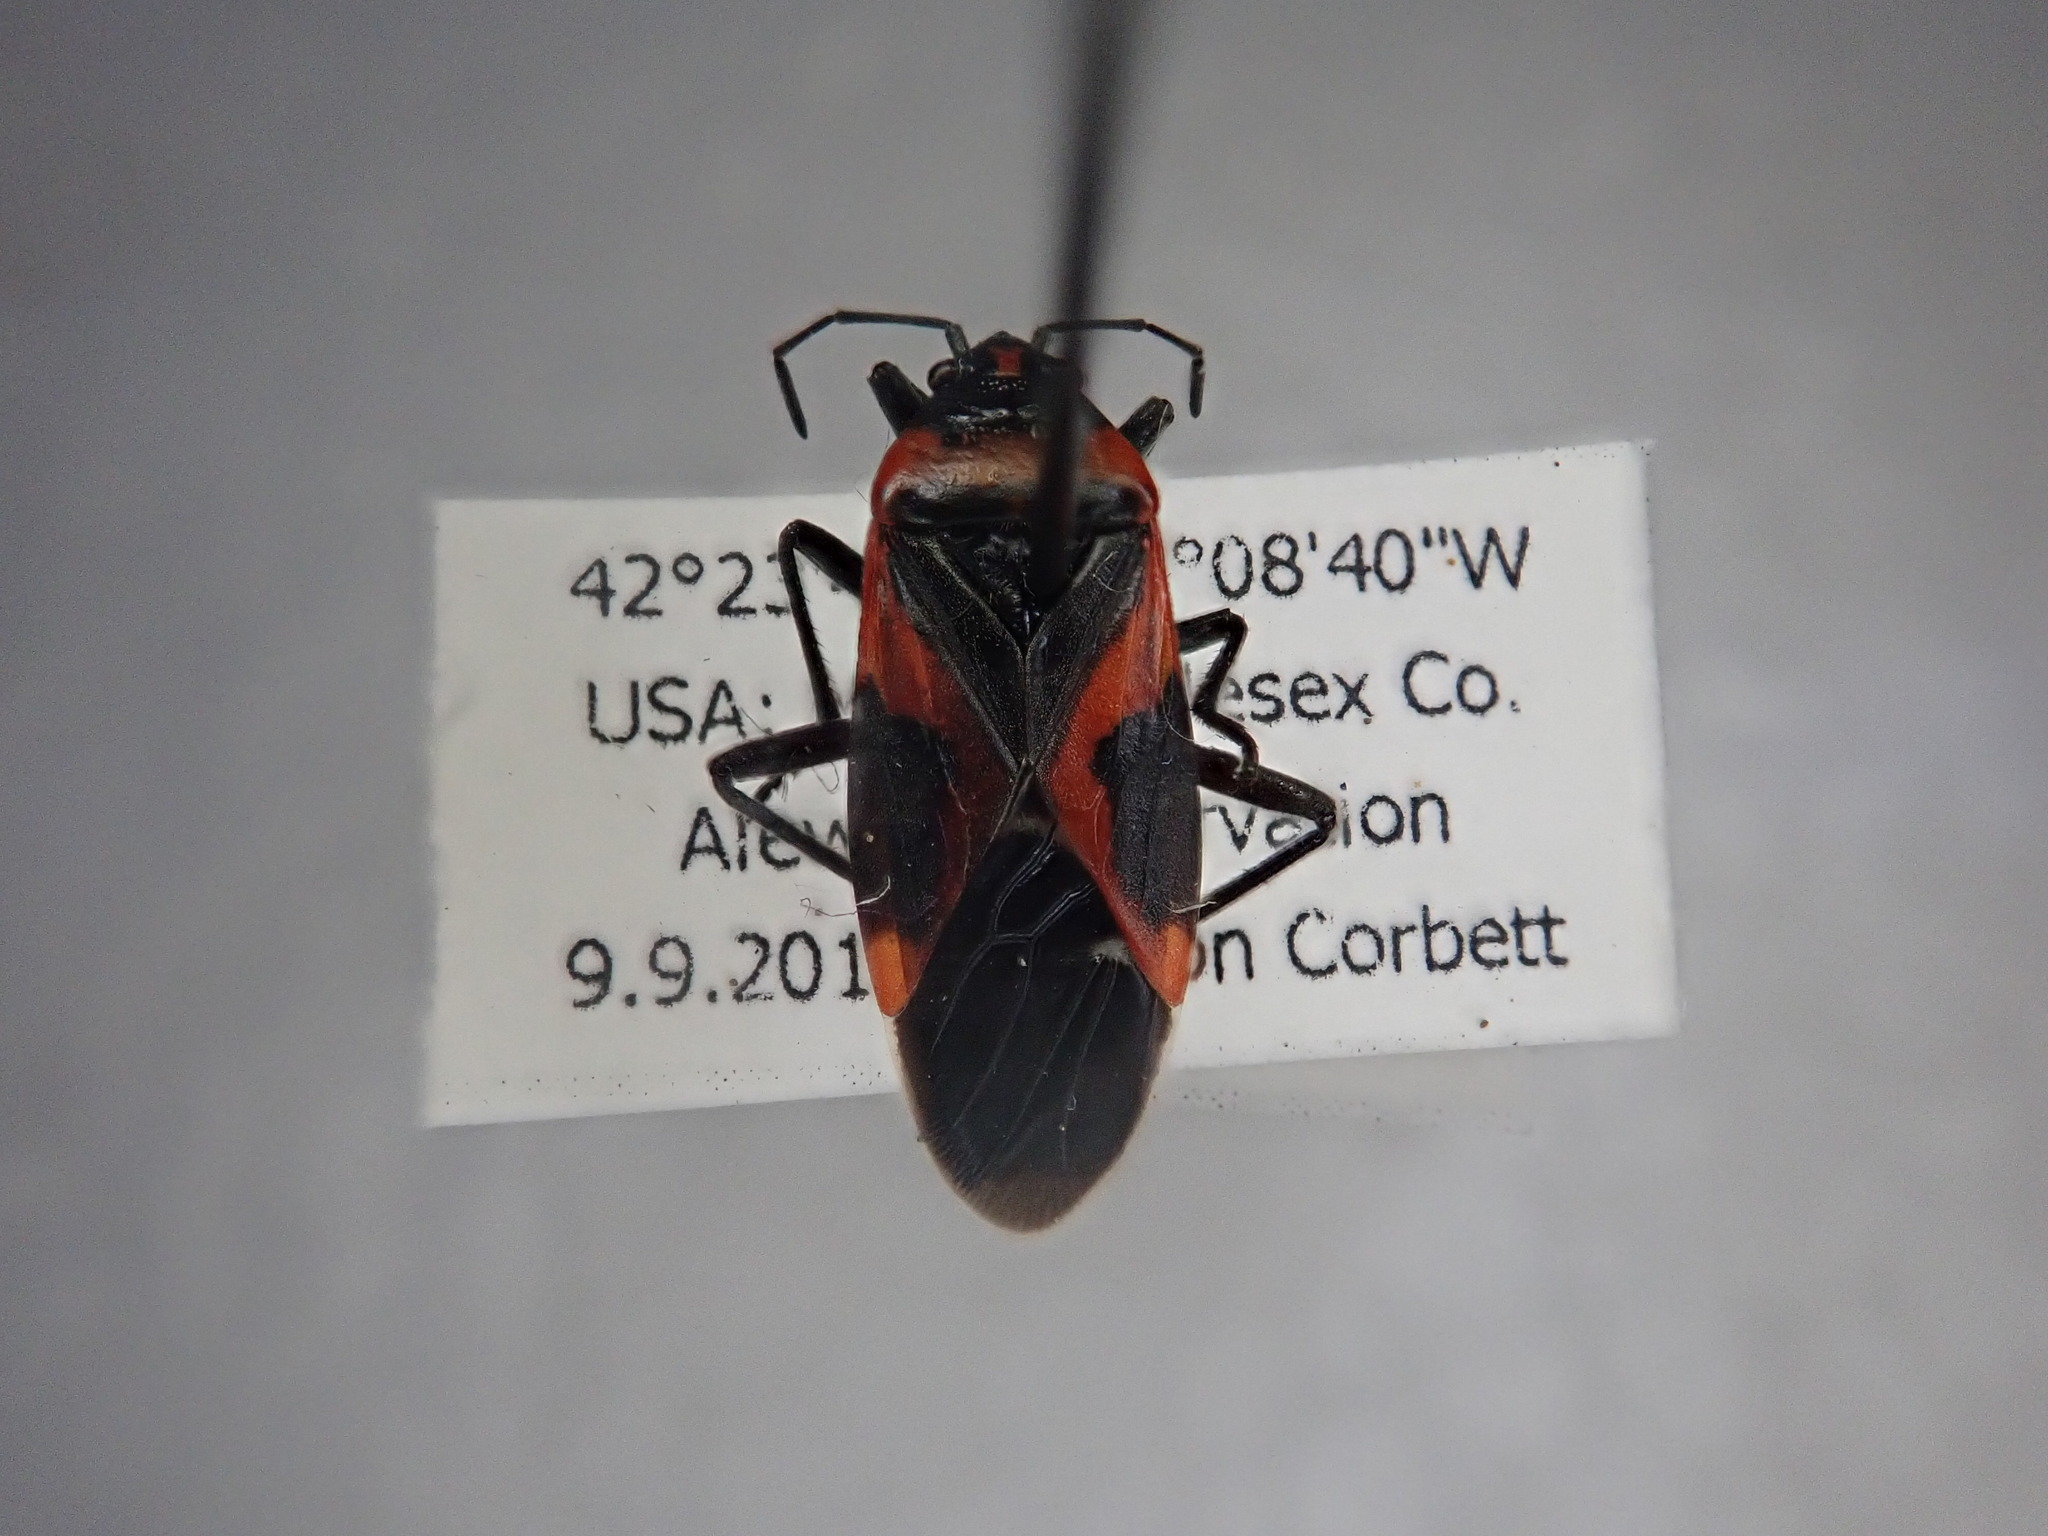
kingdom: Animalia
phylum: Arthropoda
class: Insecta
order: Hemiptera
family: Lygaeidae
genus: Lygaeus
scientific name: Lygaeus kalmii
